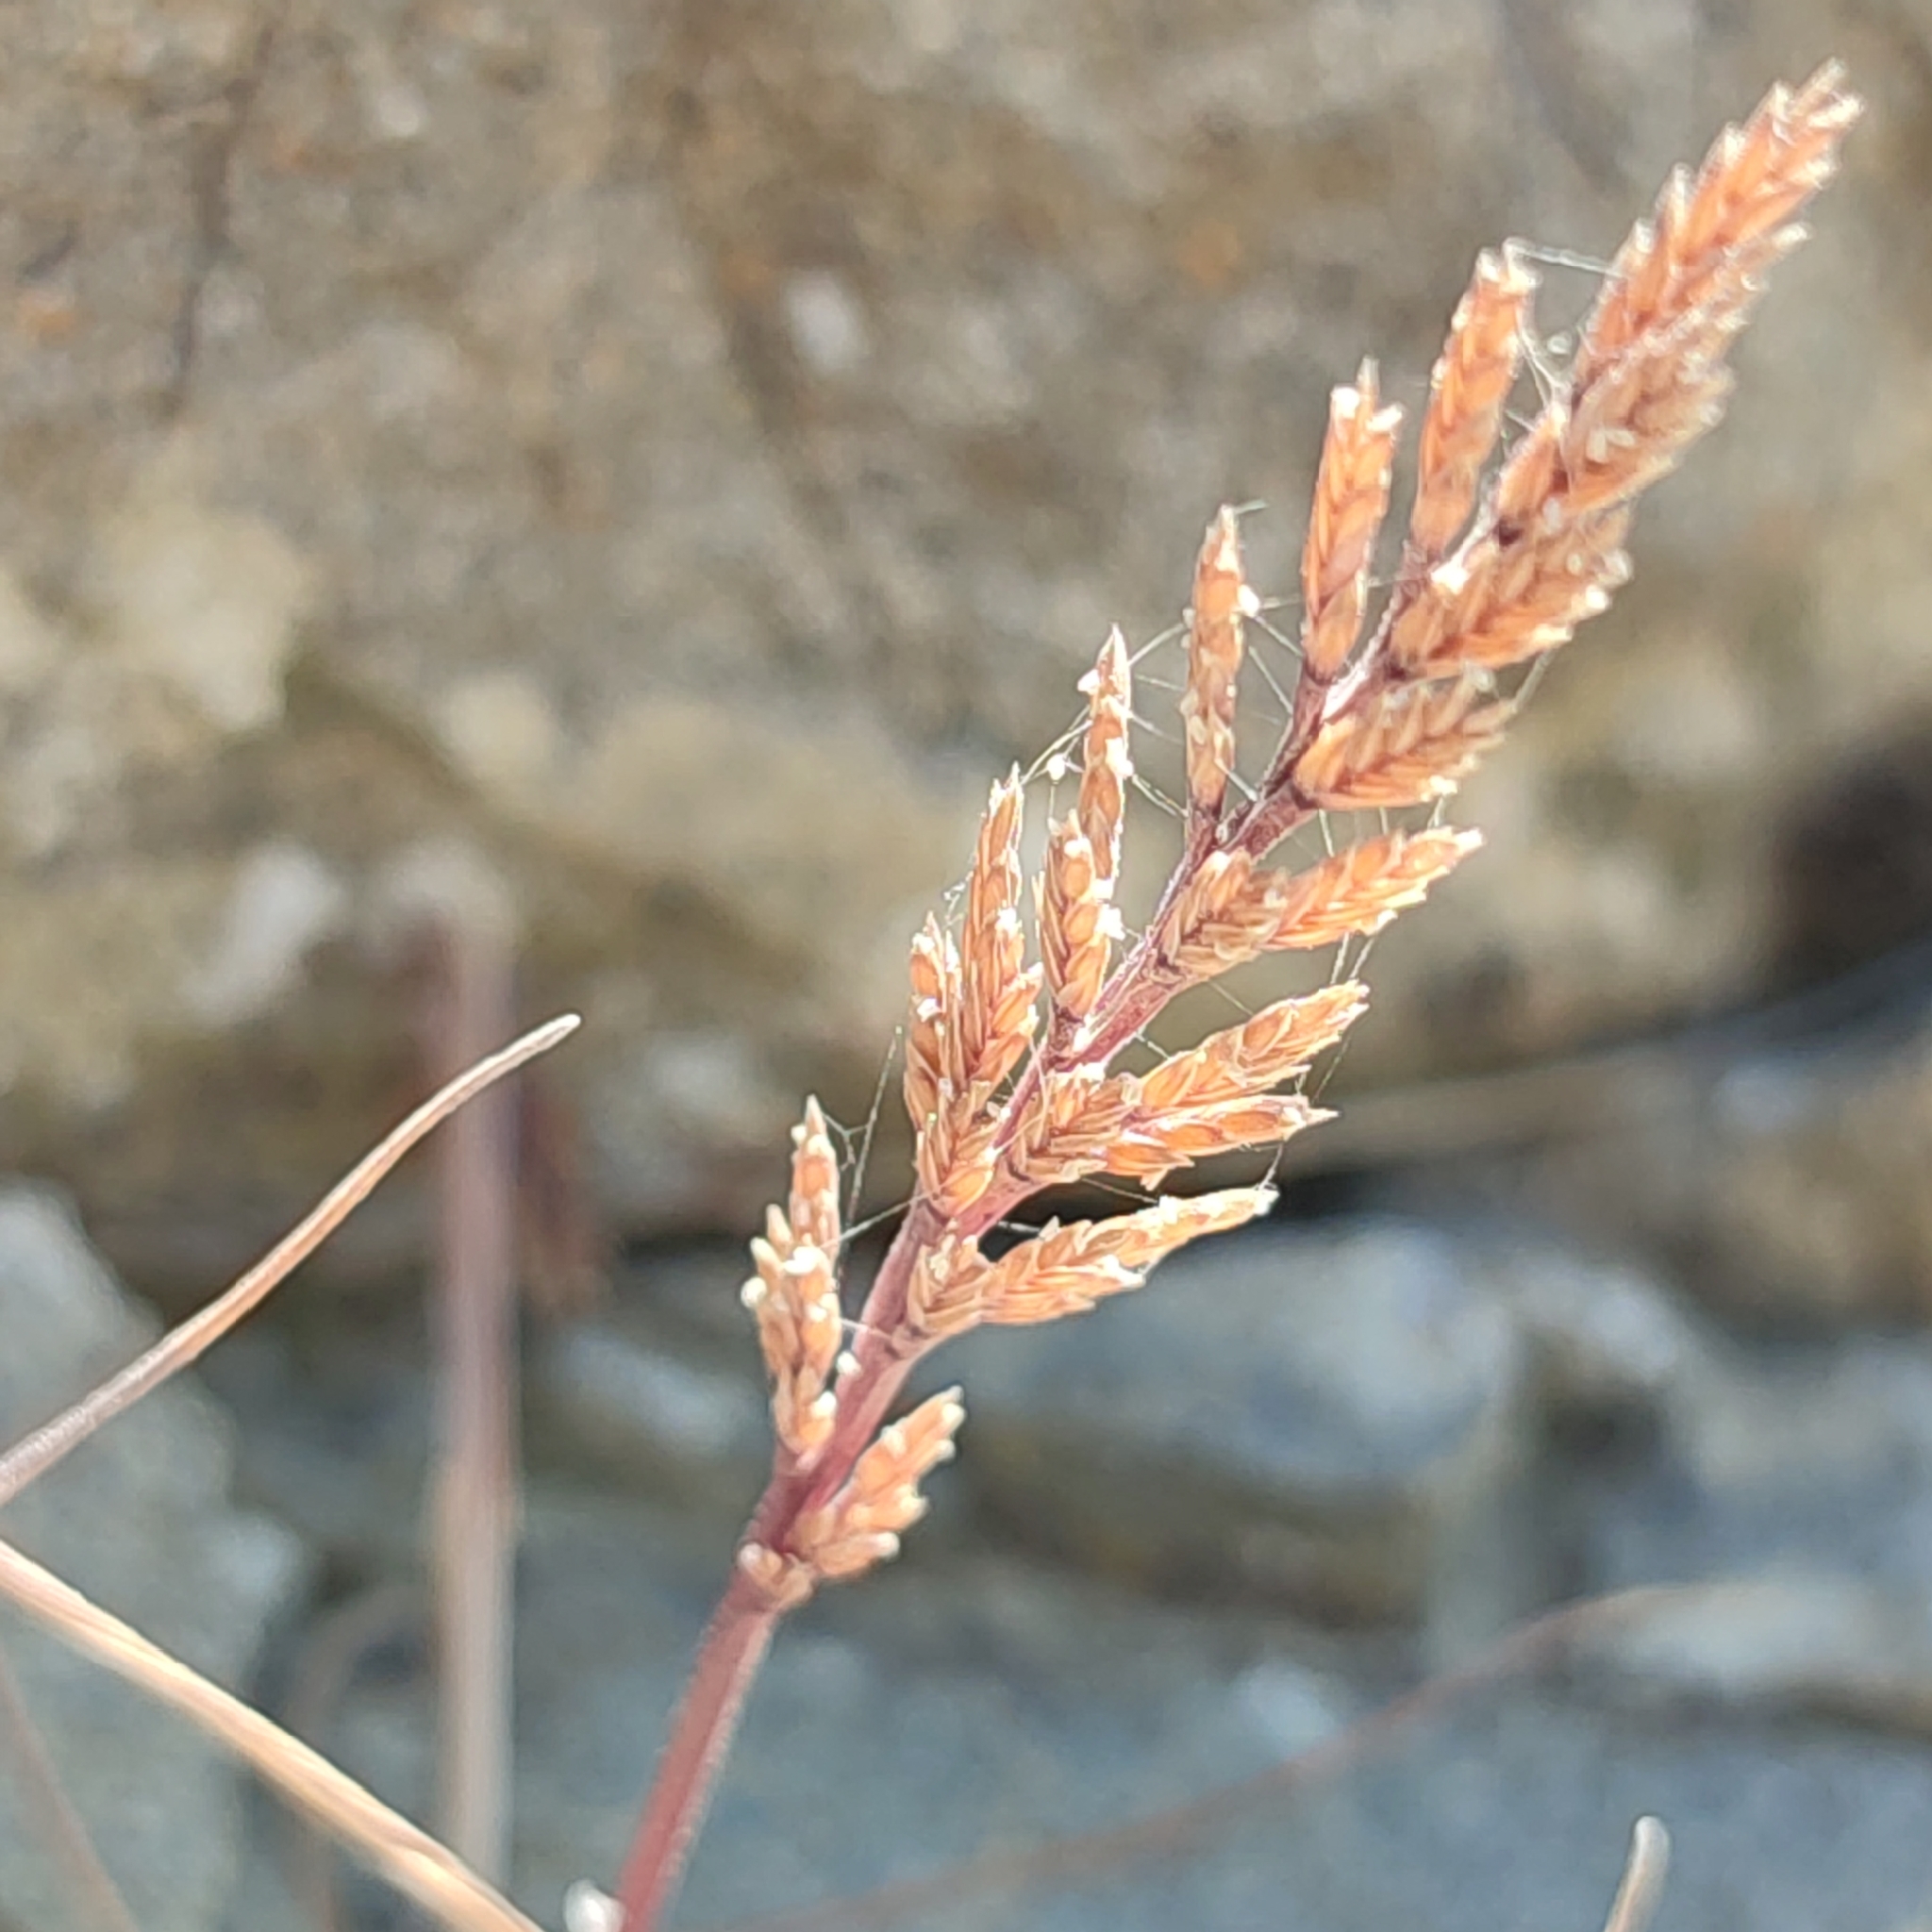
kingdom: Plantae
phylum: Tracheophyta
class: Liliopsida
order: Poales
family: Poaceae
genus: Catapodium
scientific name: Catapodium rigidum
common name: Fern-grass
